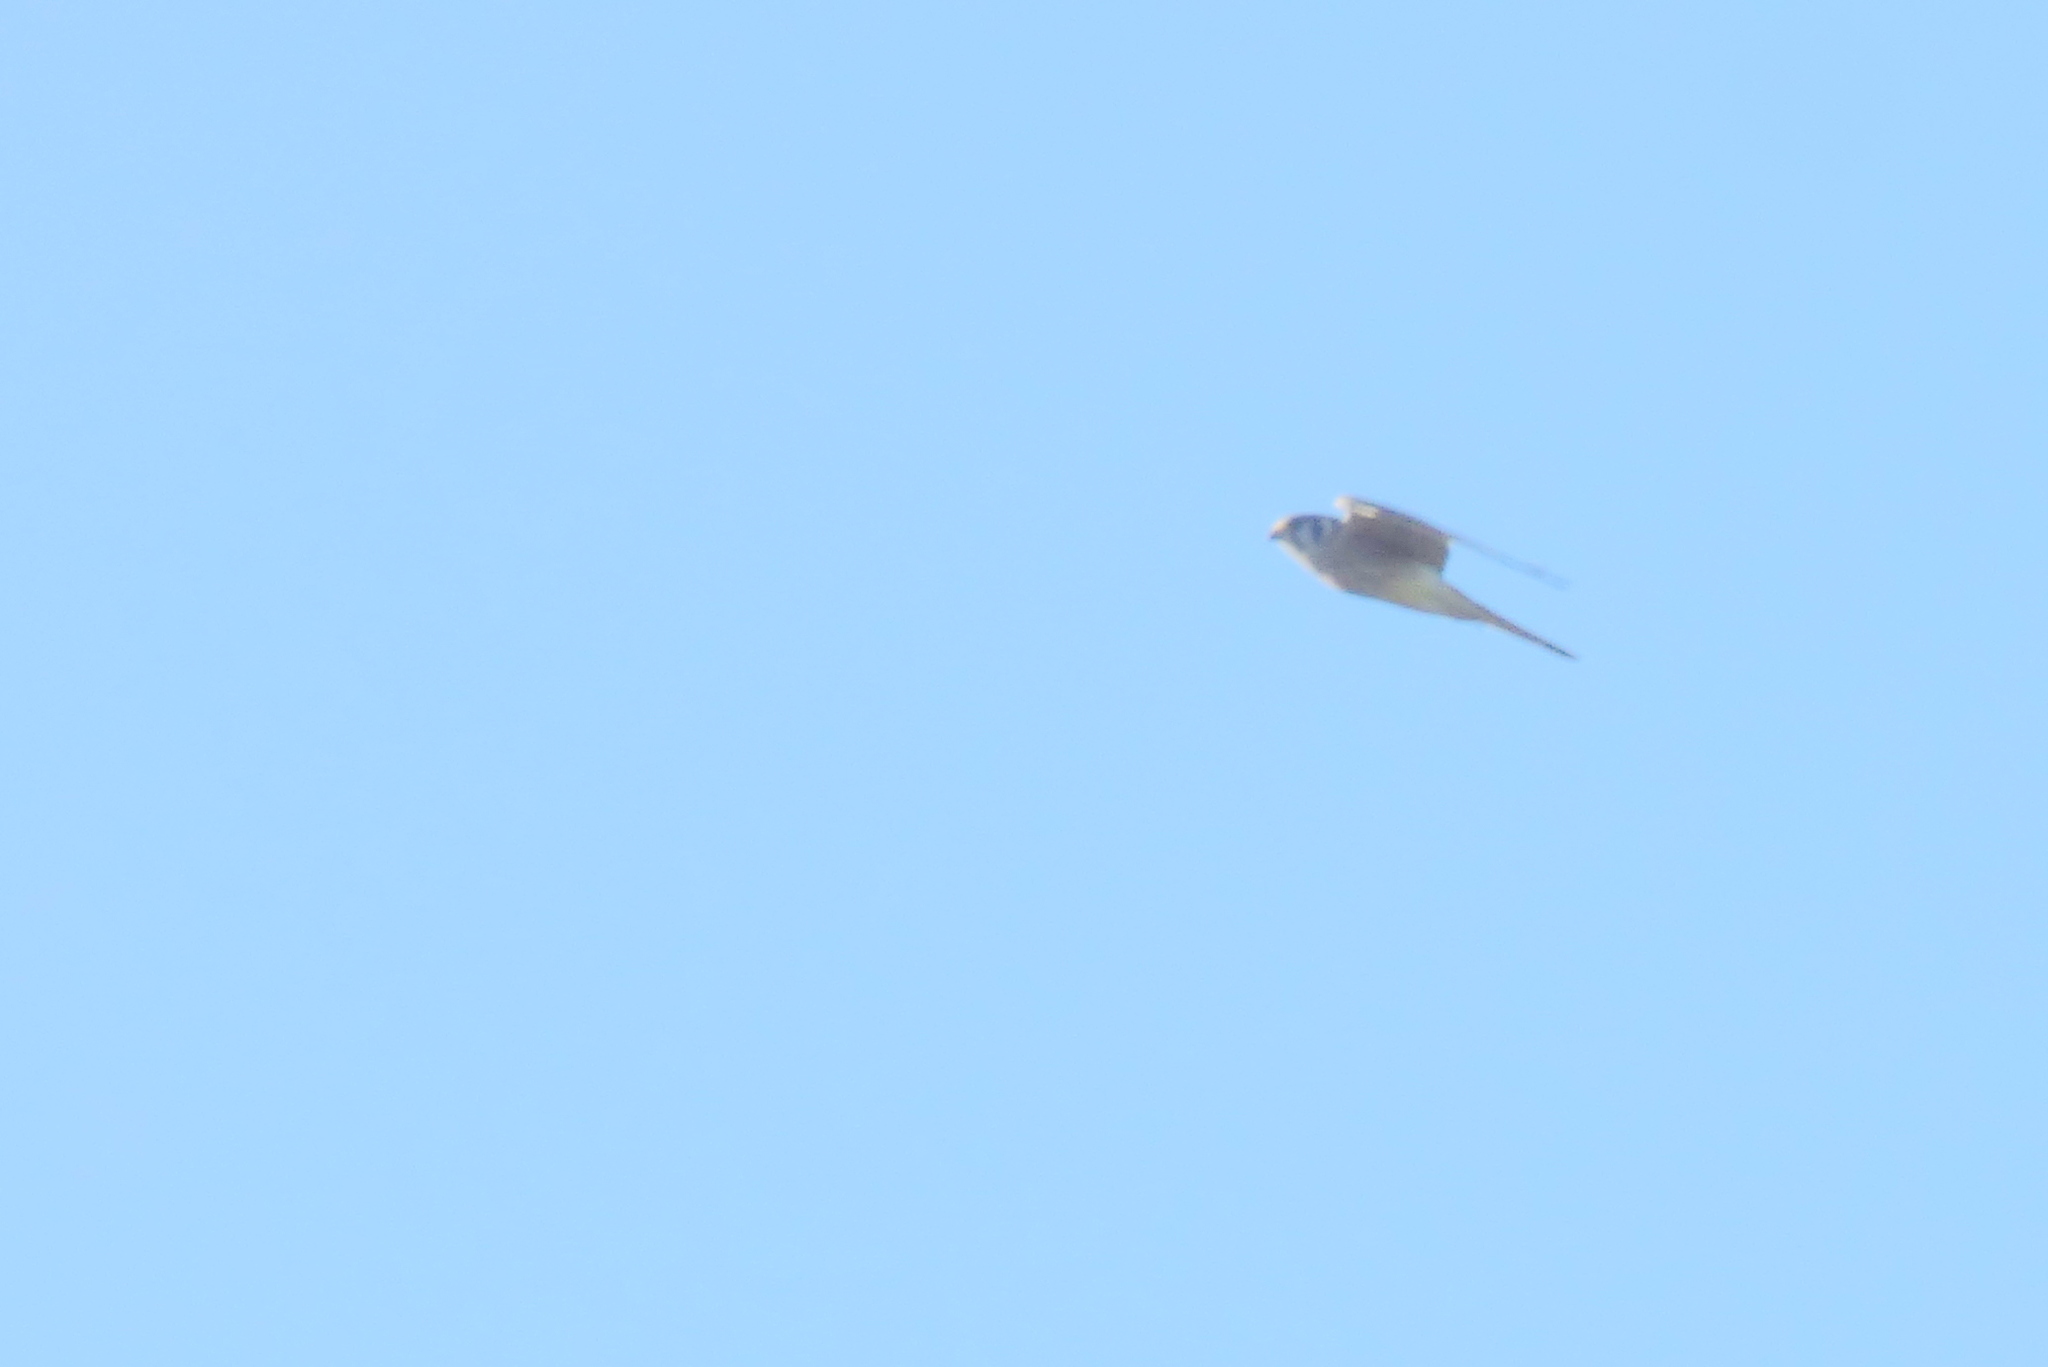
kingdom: Animalia
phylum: Chordata
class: Aves
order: Falconiformes
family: Falconidae
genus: Falco
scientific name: Falco sparverius
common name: American kestrel
